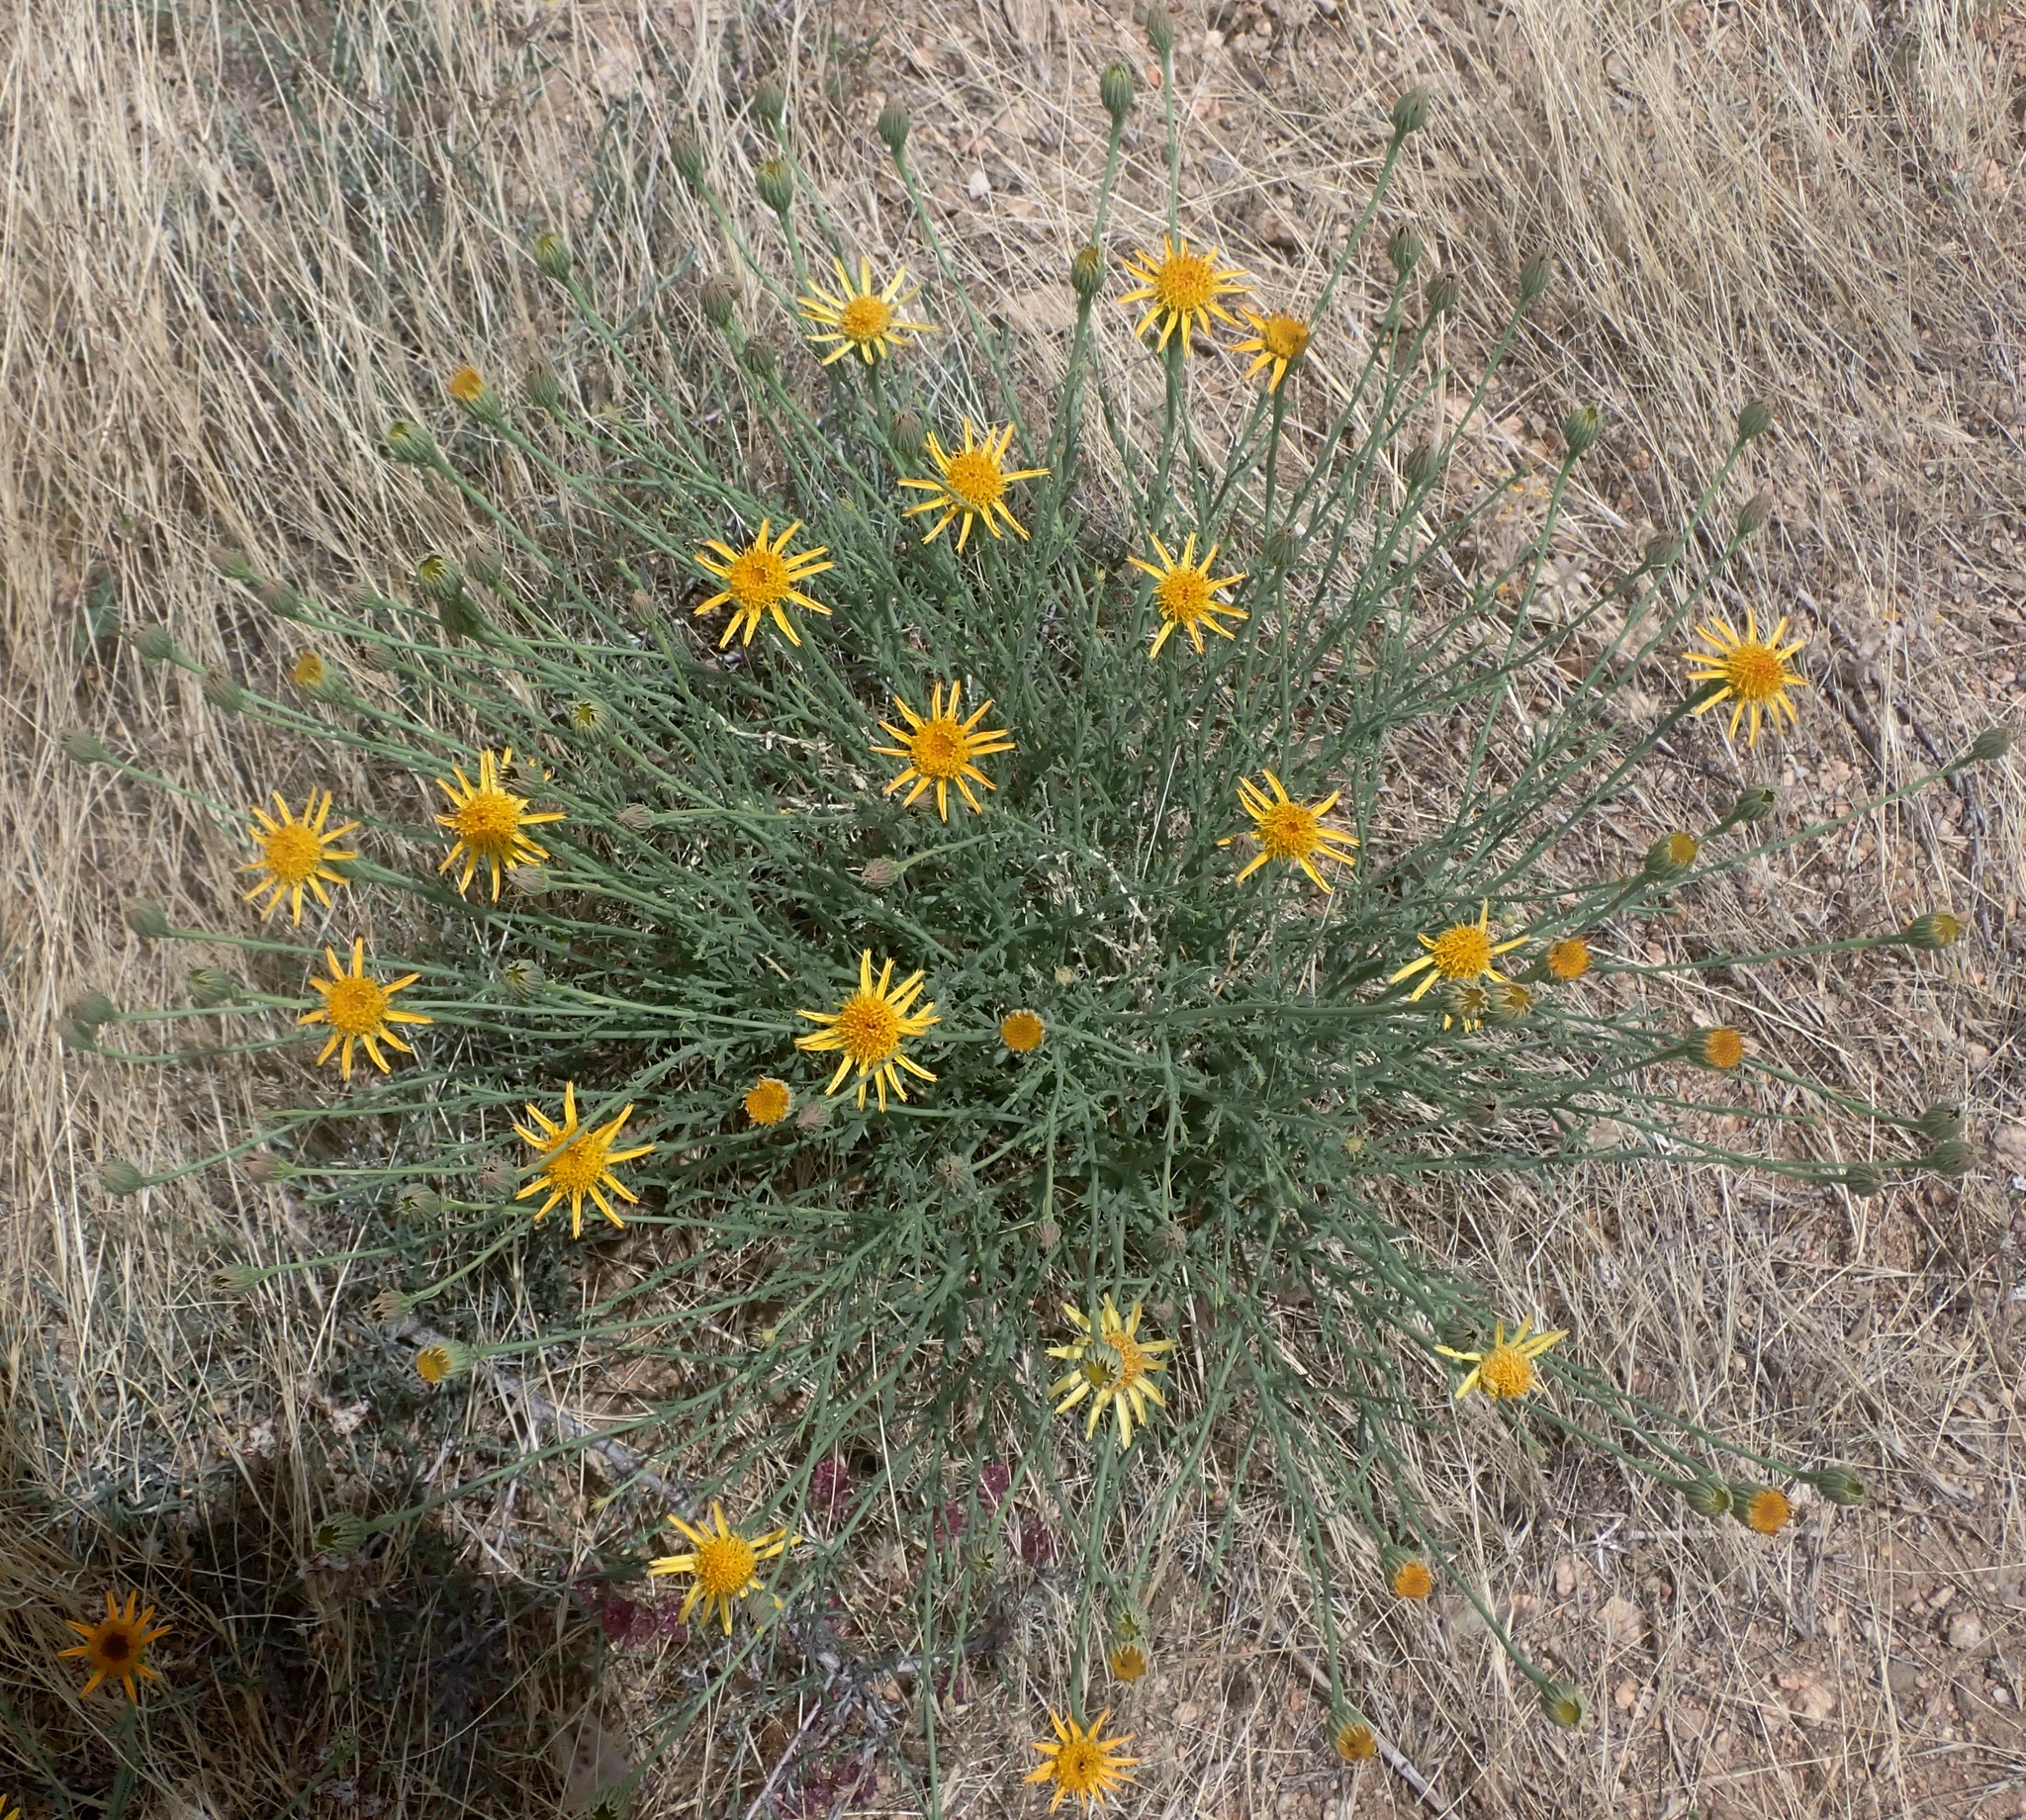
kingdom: Plantae
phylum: Tracheophyta
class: Magnoliopsida
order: Asterales
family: Asteraceae
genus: Adenophyllum
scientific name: Adenophyllum cooperi
